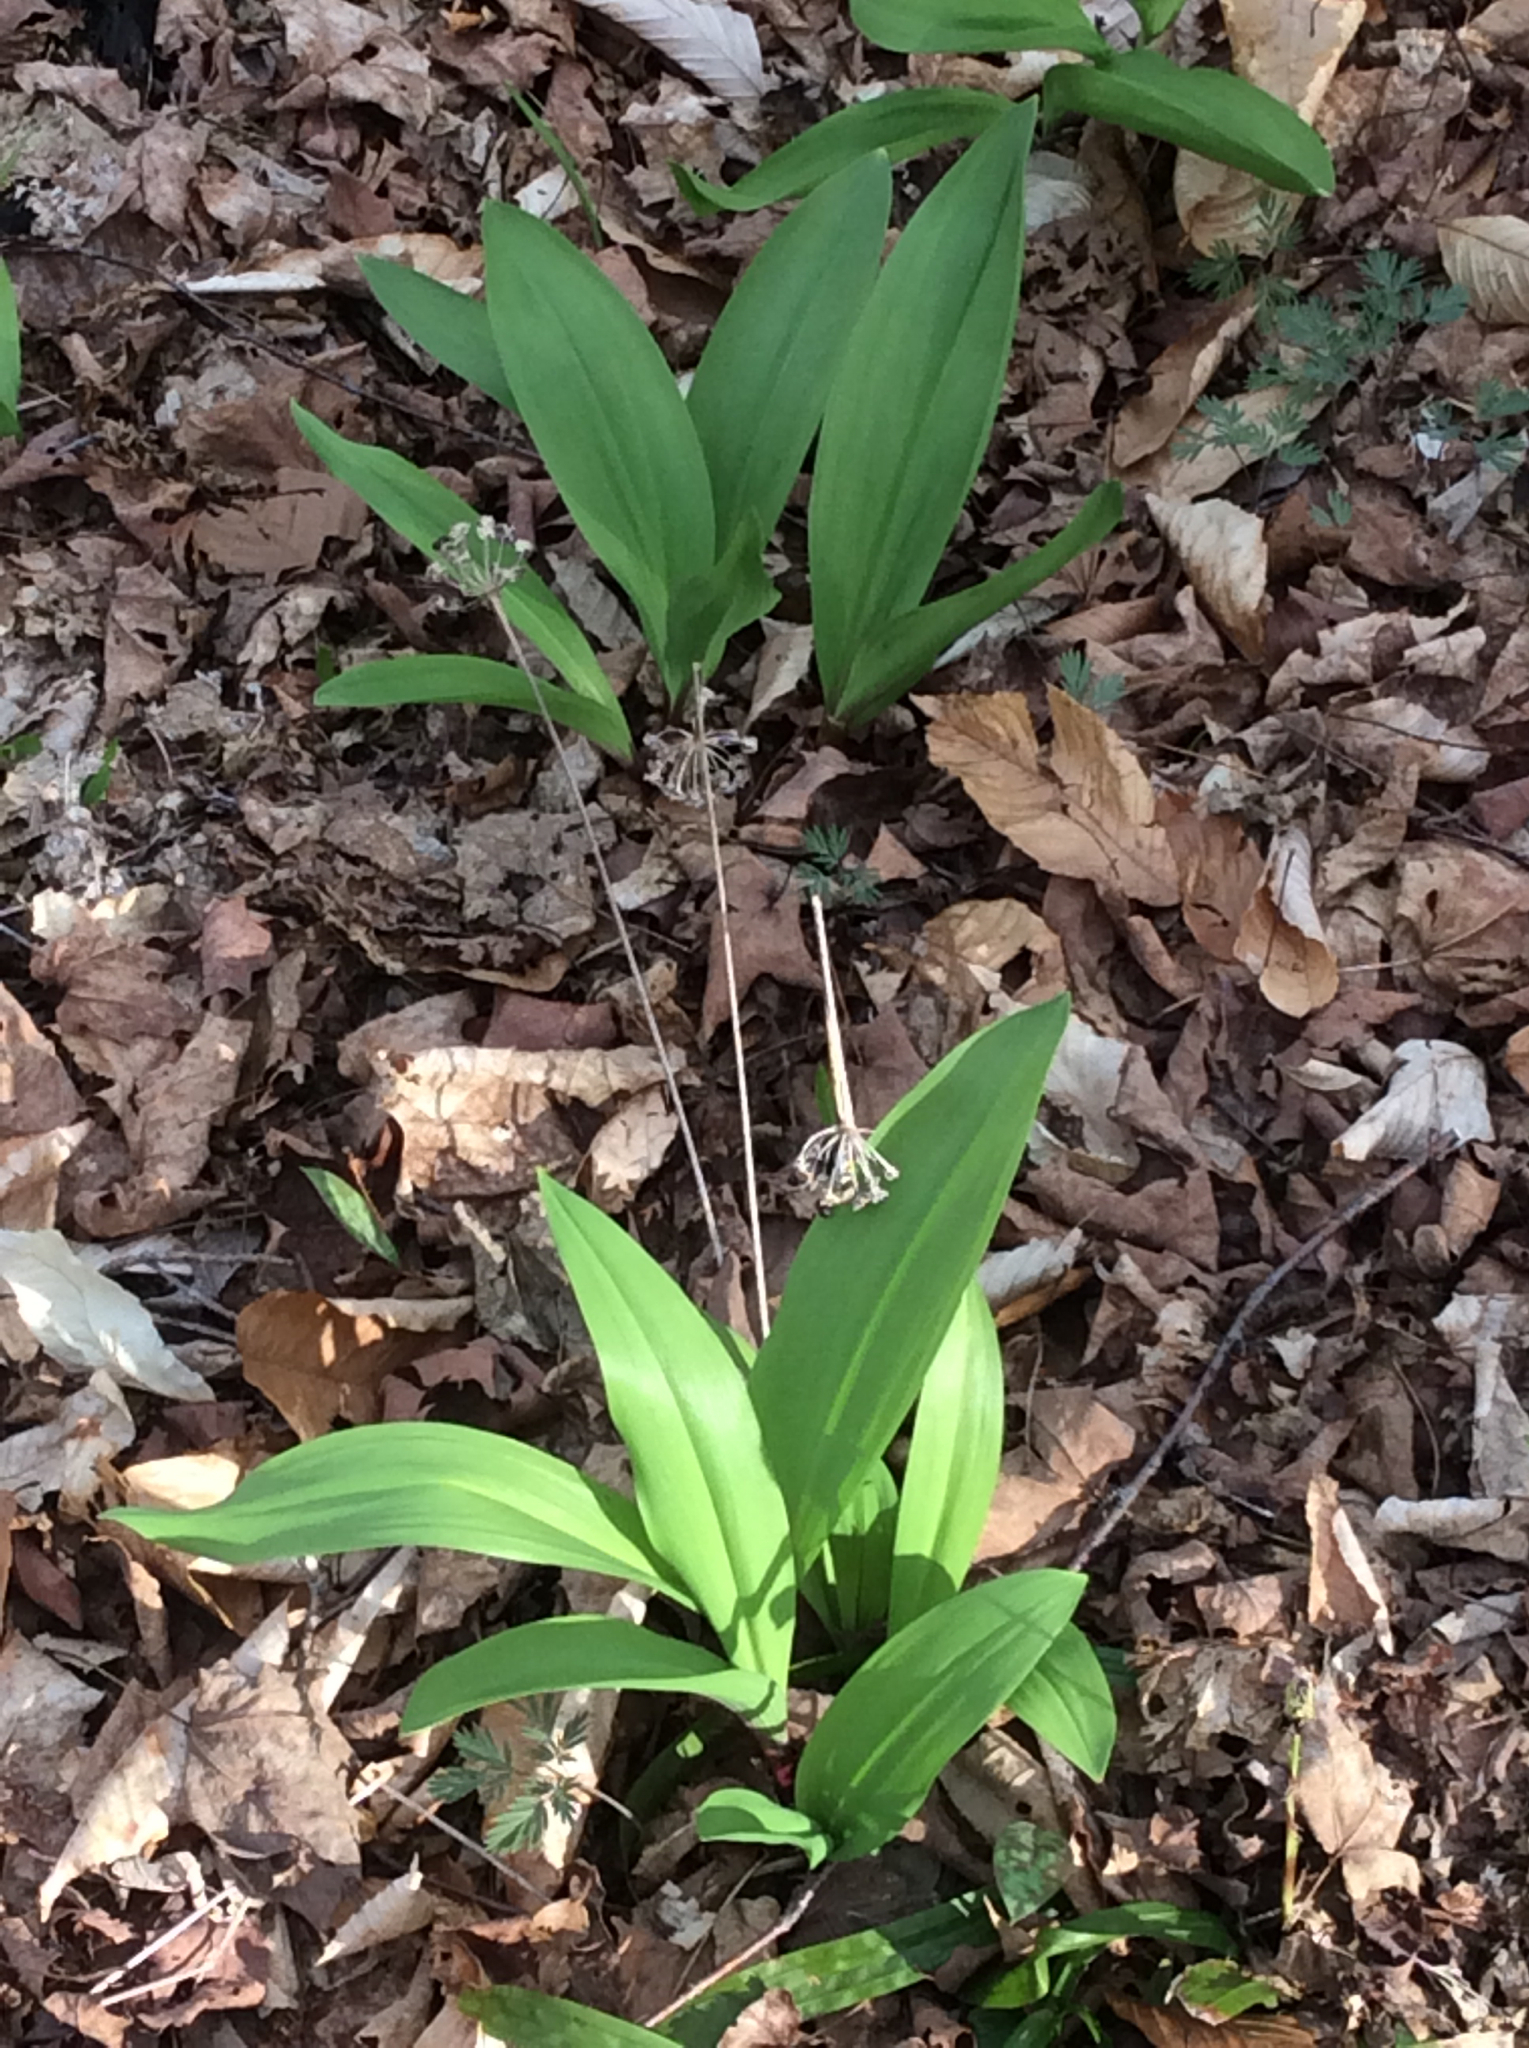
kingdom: Plantae
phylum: Tracheophyta
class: Liliopsida
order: Asparagales
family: Amaryllidaceae
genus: Allium
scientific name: Allium tricoccum
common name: Ramp
